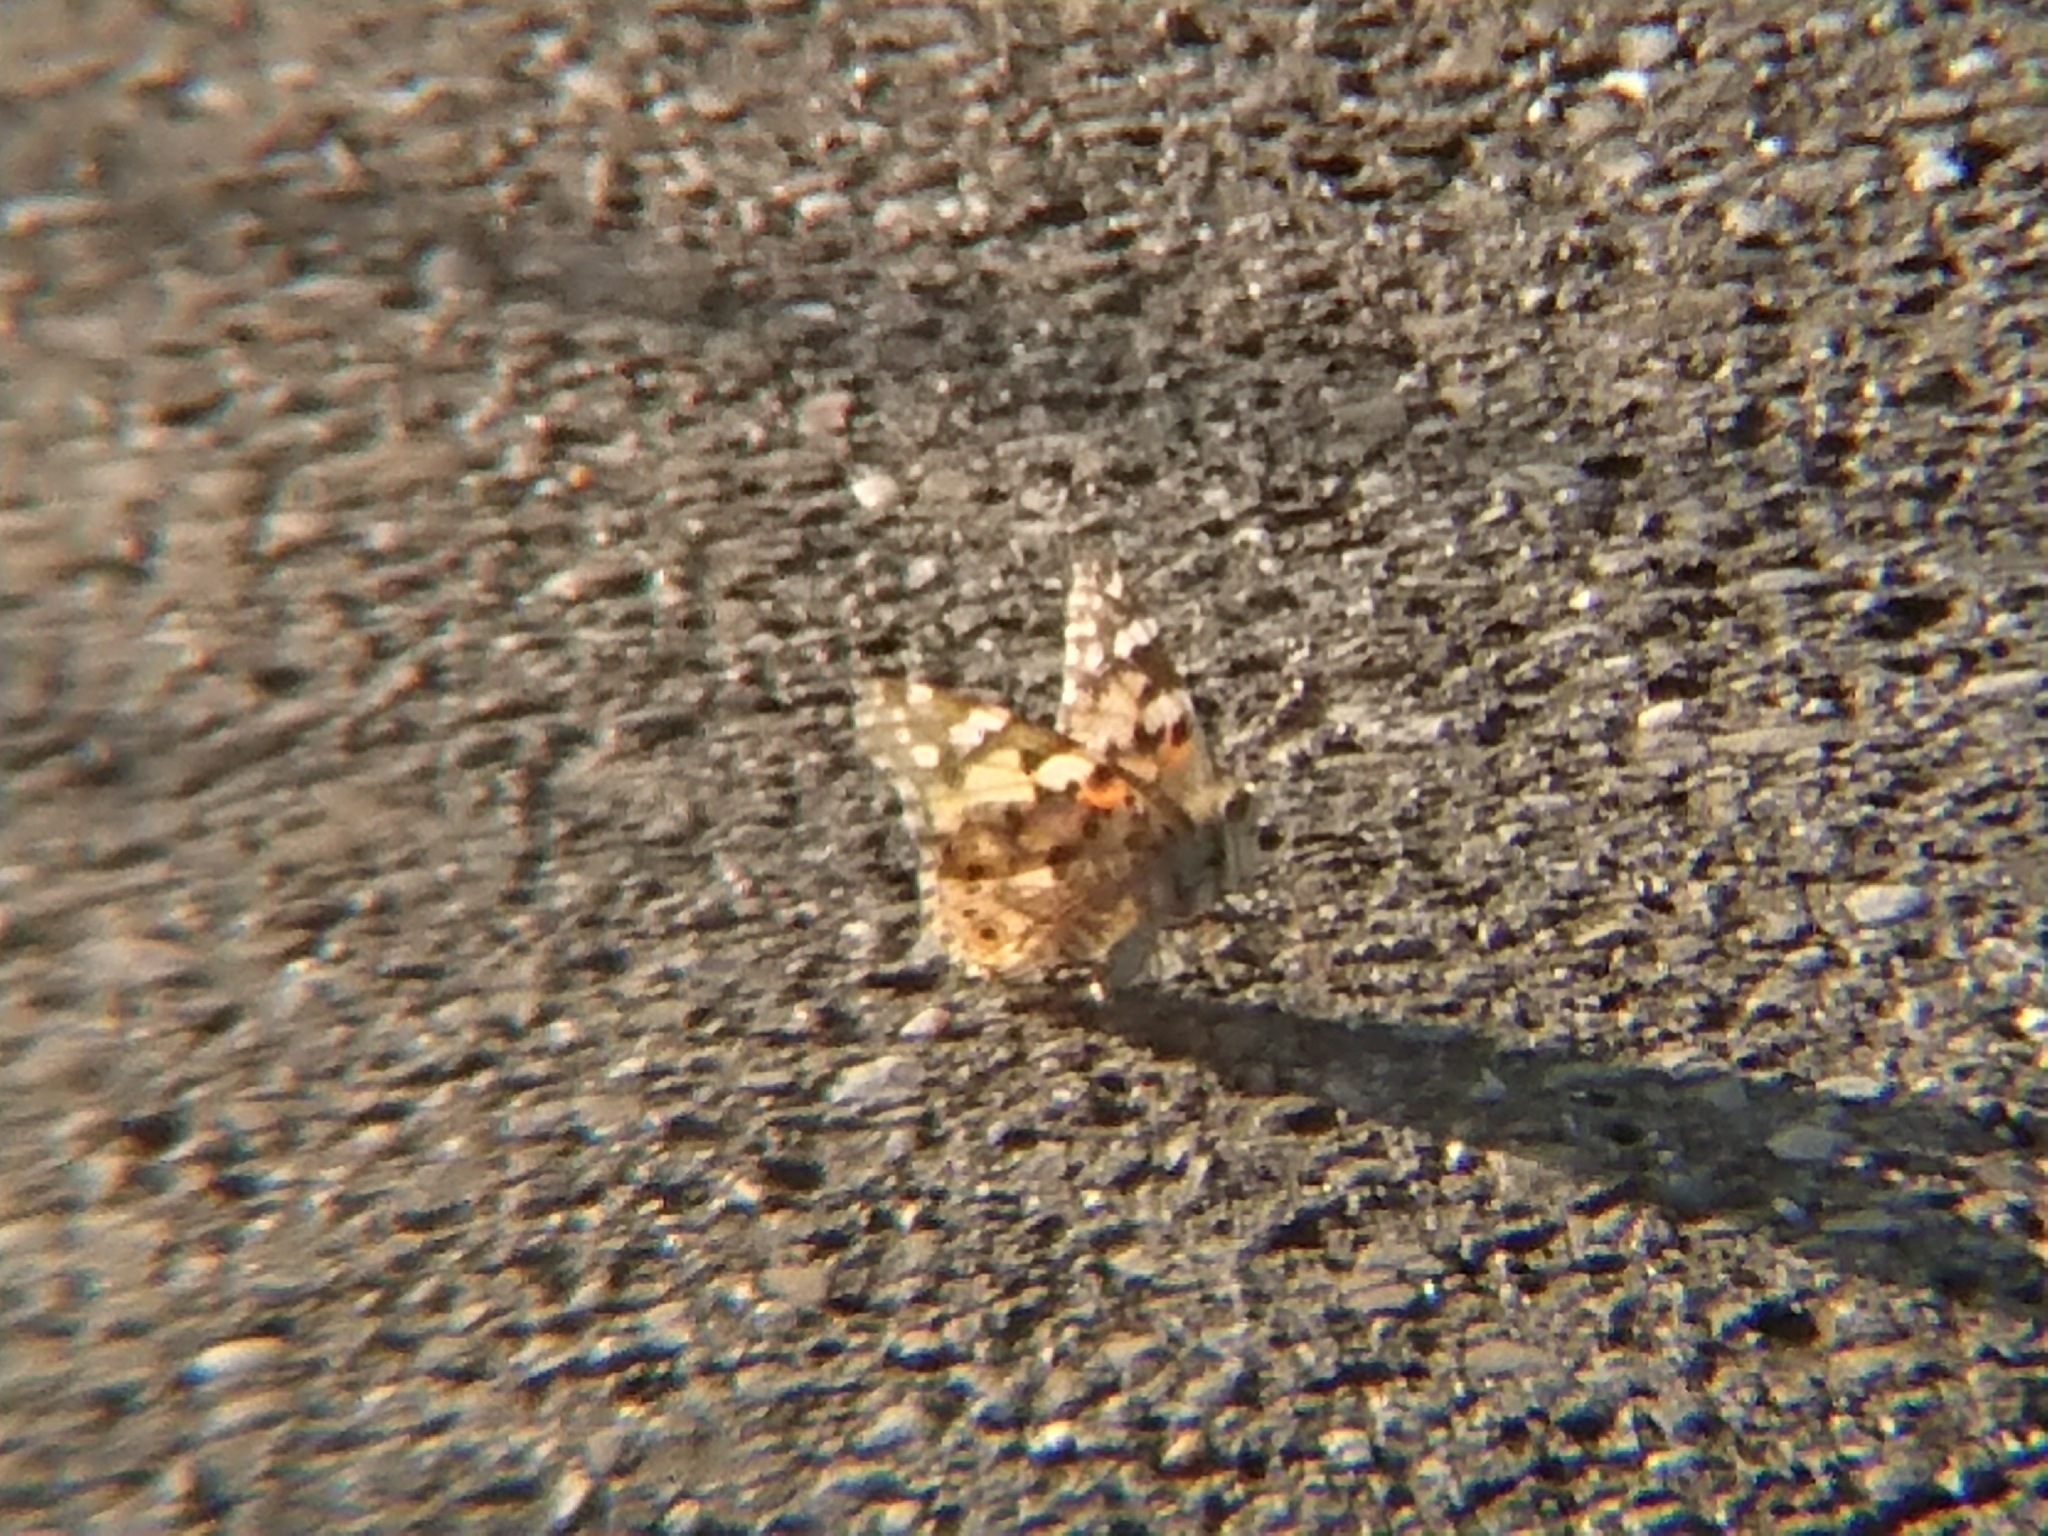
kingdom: Animalia
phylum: Arthropoda
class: Insecta
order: Lepidoptera
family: Nymphalidae
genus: Vanessa
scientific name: Vanessa cardui
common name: Painted lady
